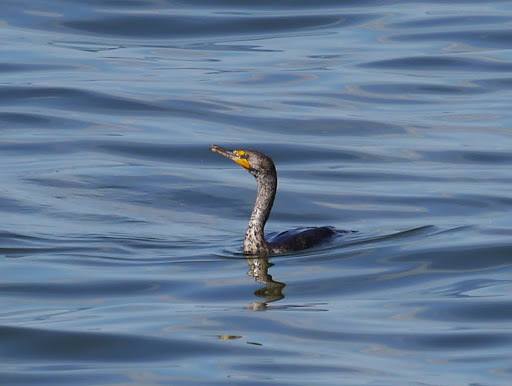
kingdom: Animalia
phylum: Chordata
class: Aves
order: Suliformes
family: Phalacrocoracidae
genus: Phalacrocorax
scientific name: Phalacrocorax auritus
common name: Double-crested cormorant
